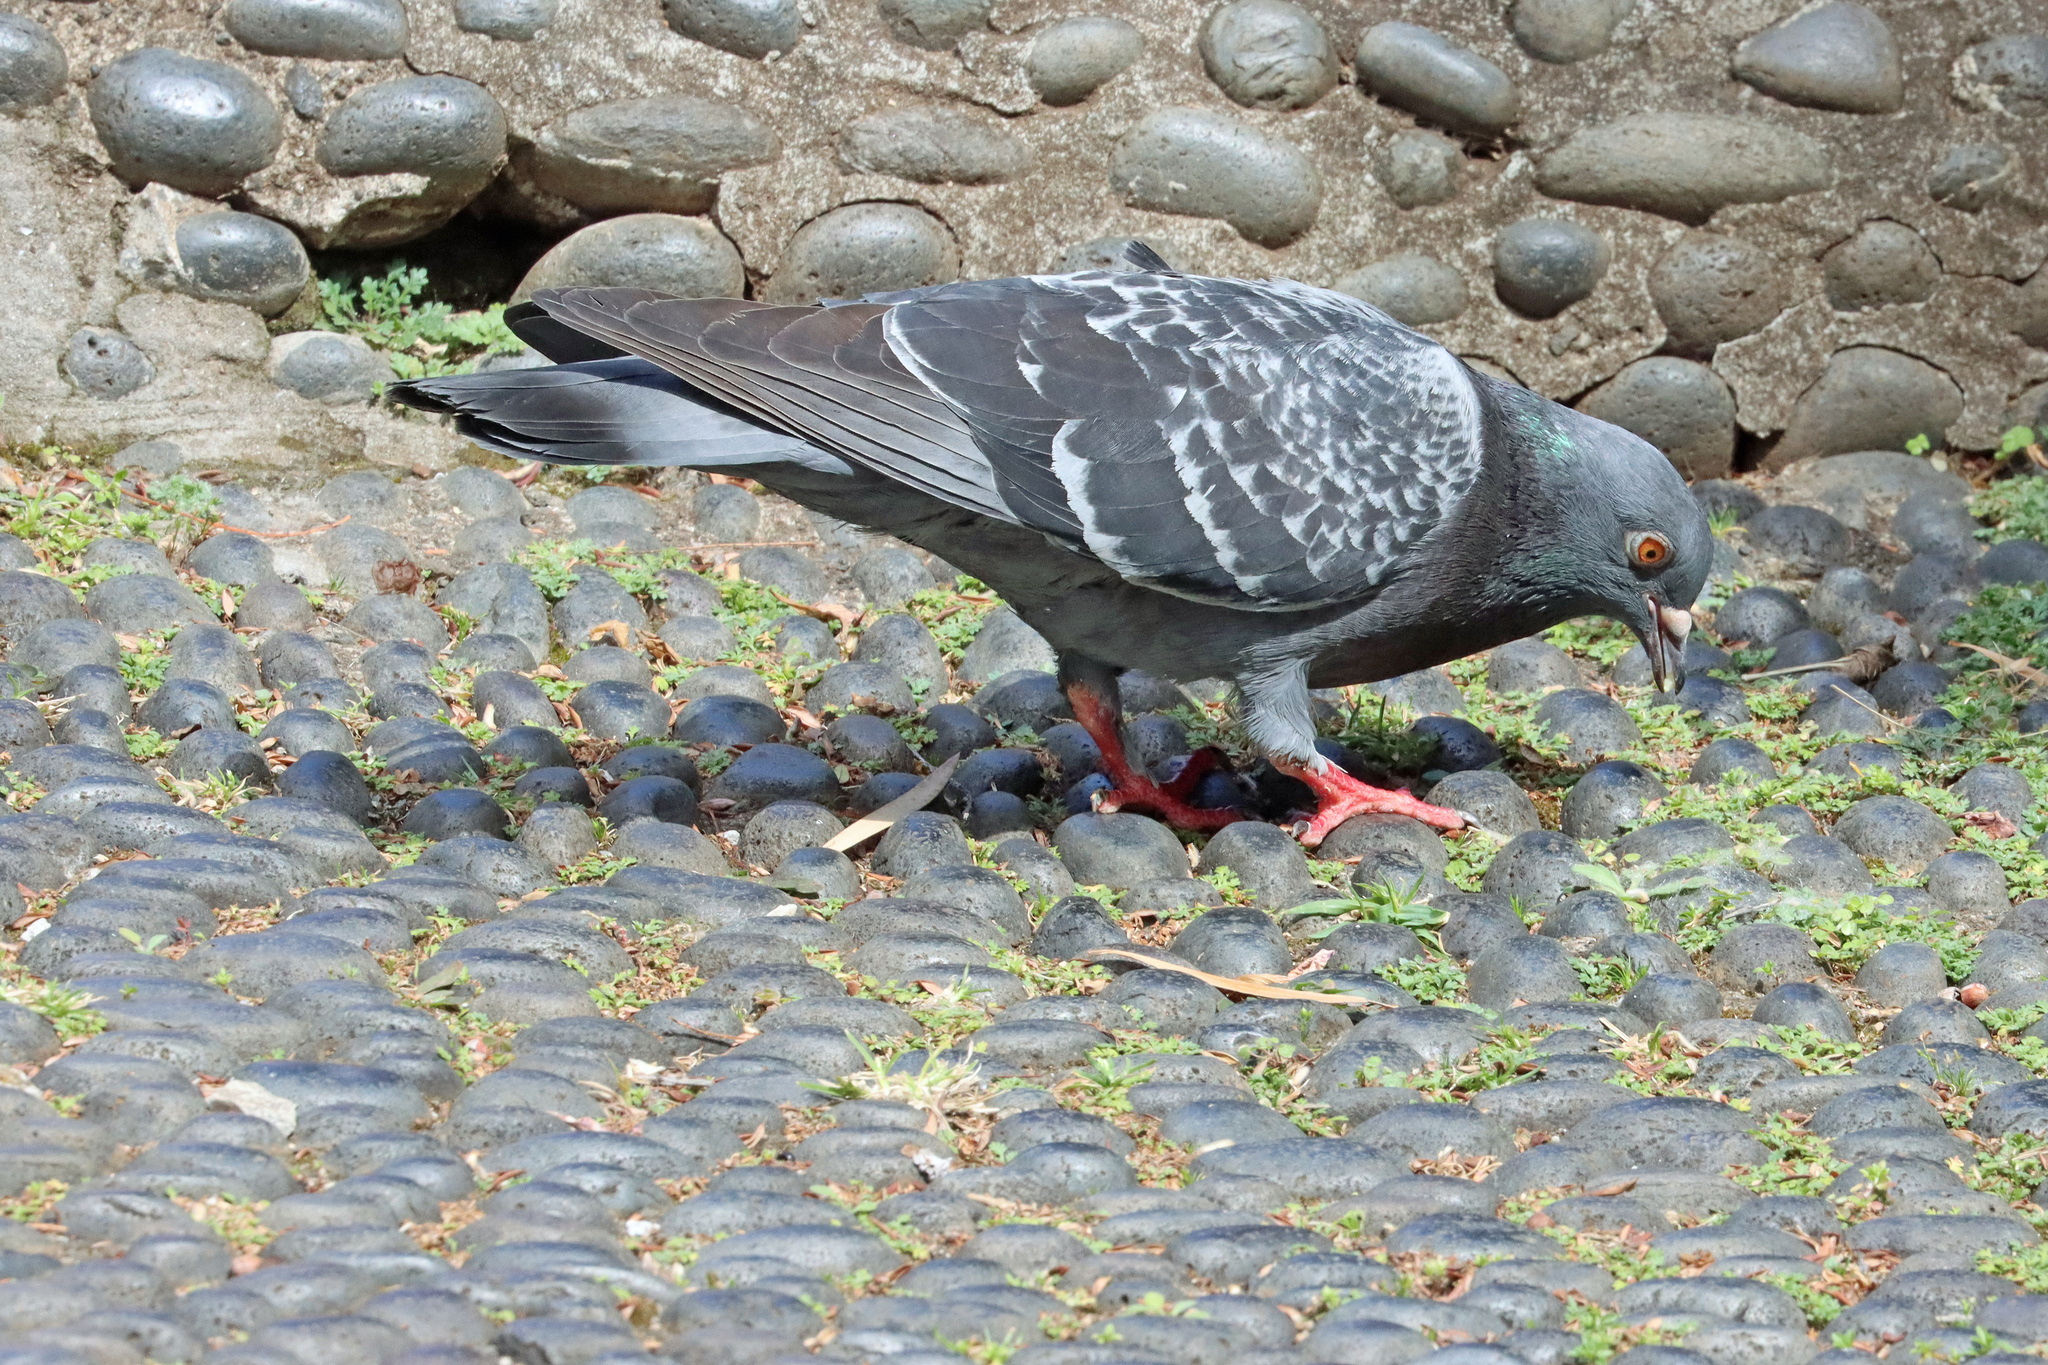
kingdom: Animalia
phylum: Chordata
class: Aves
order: Columbiformes
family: Columbidae
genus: Columba
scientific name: Columba livia
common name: Rock pigeon
